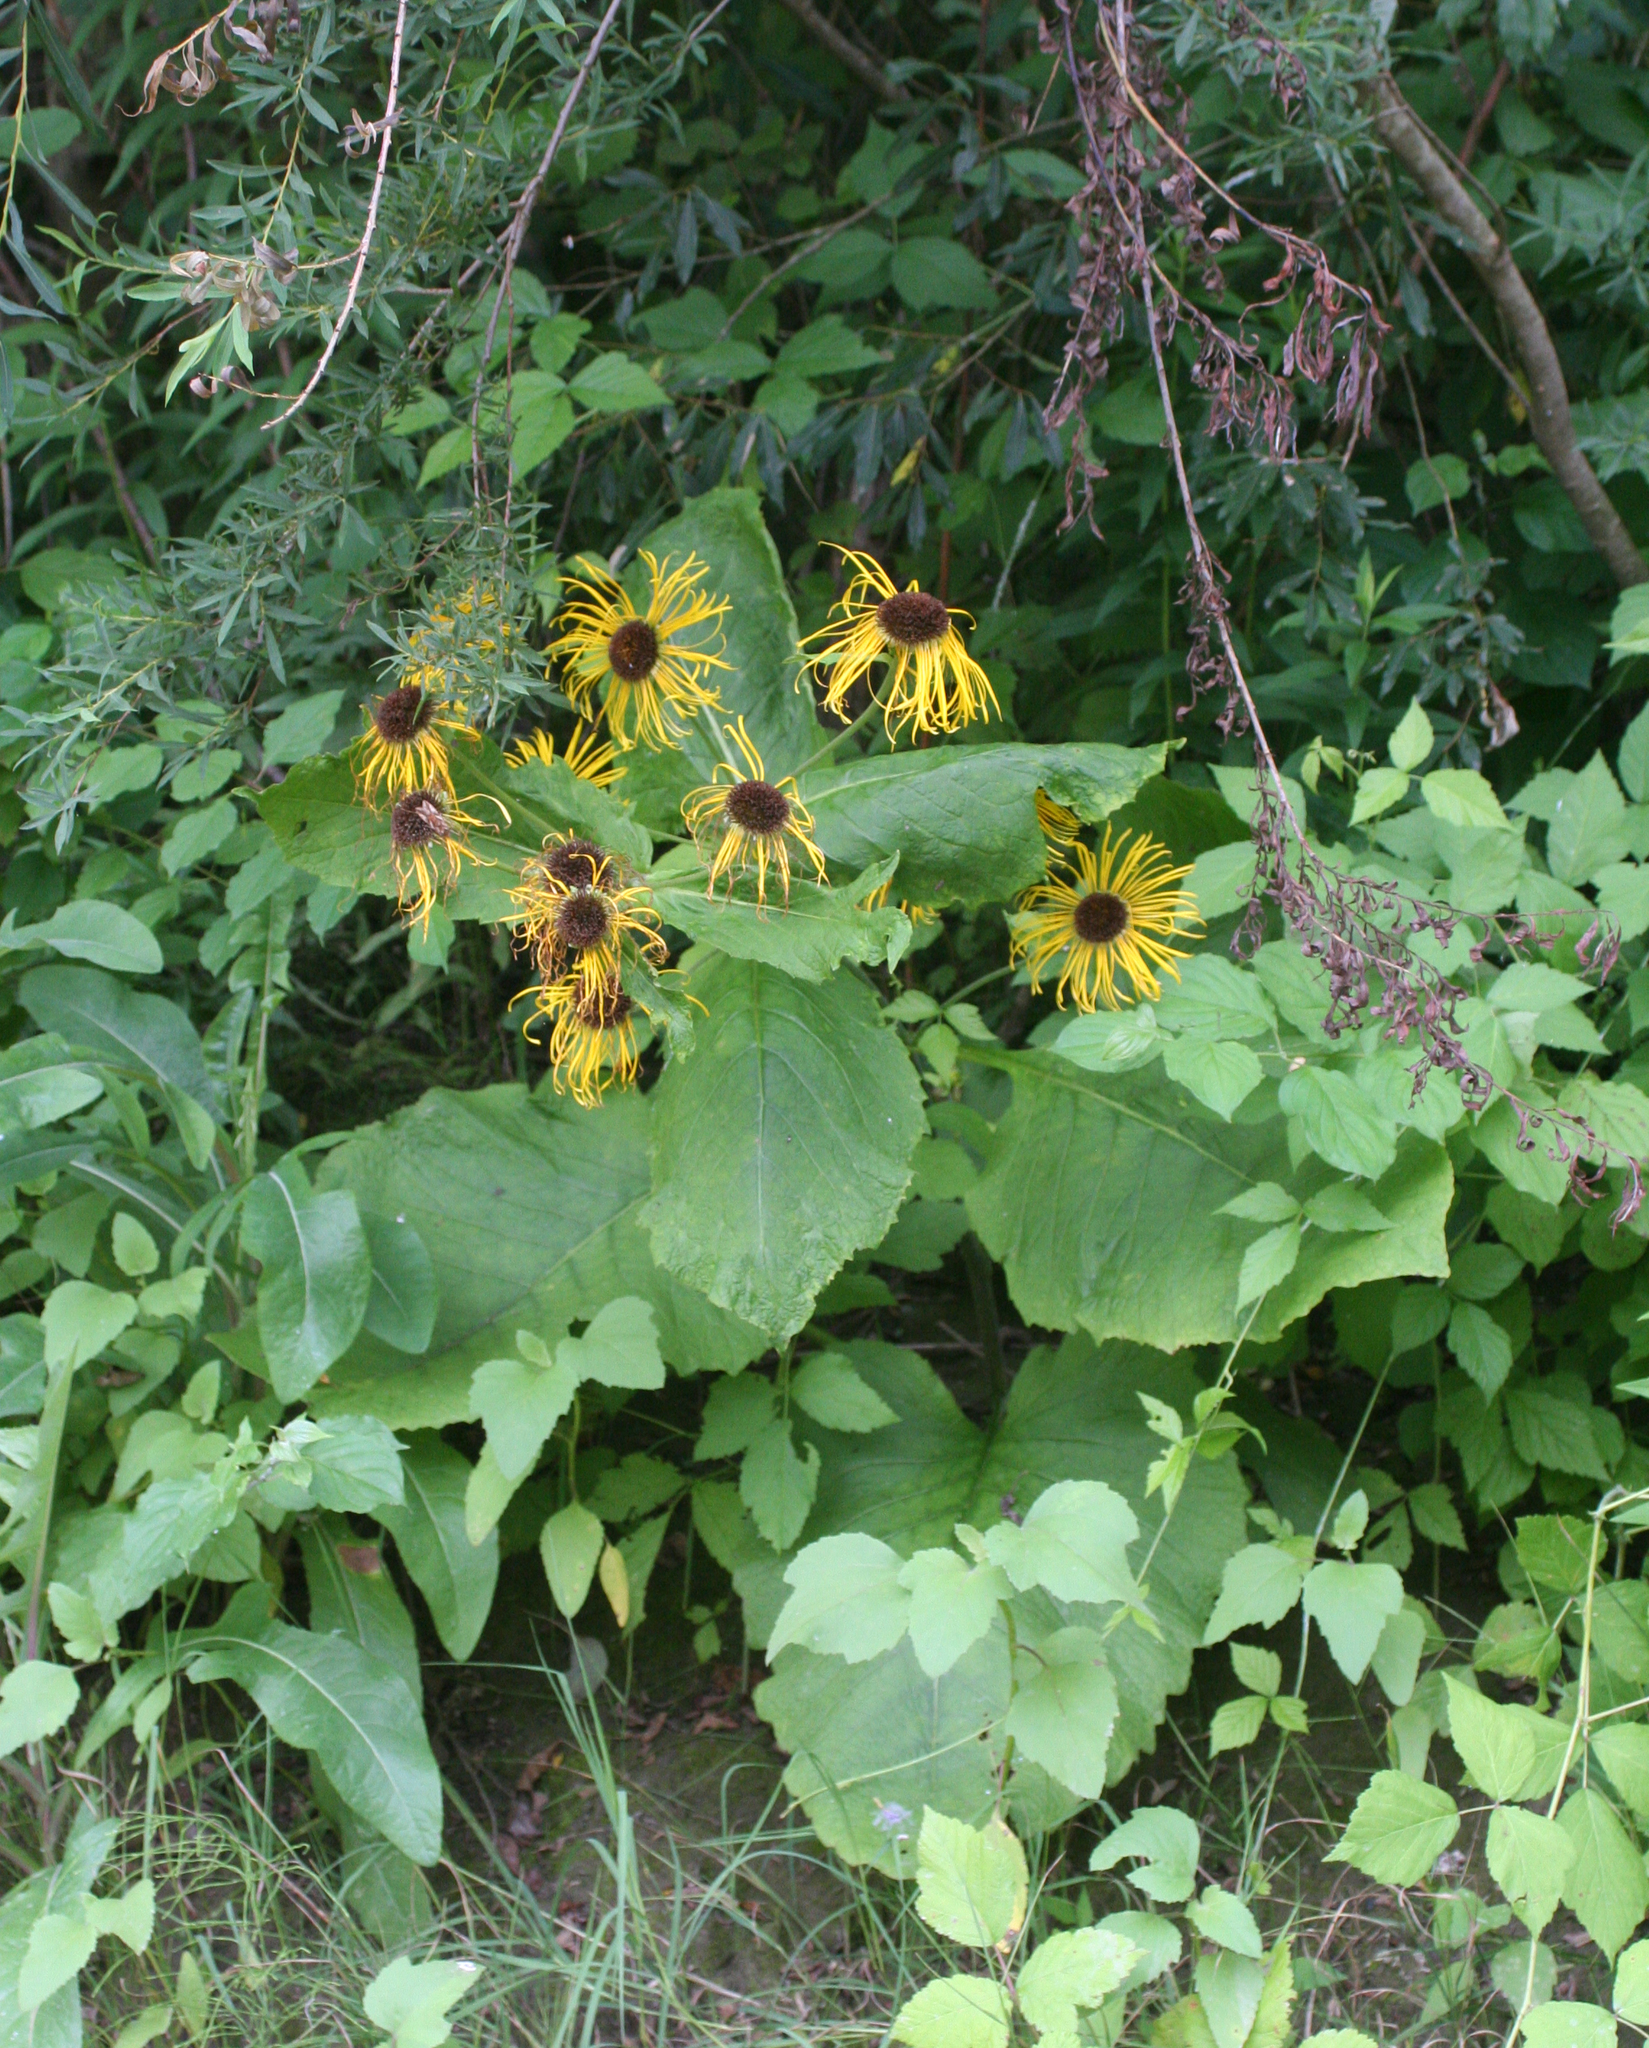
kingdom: Plantae
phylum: Tracheophyta
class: Magnoliopsida
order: Asterales
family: Asteraceae
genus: Telekia
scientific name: Telekia speciosa
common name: Yellow oxeye
